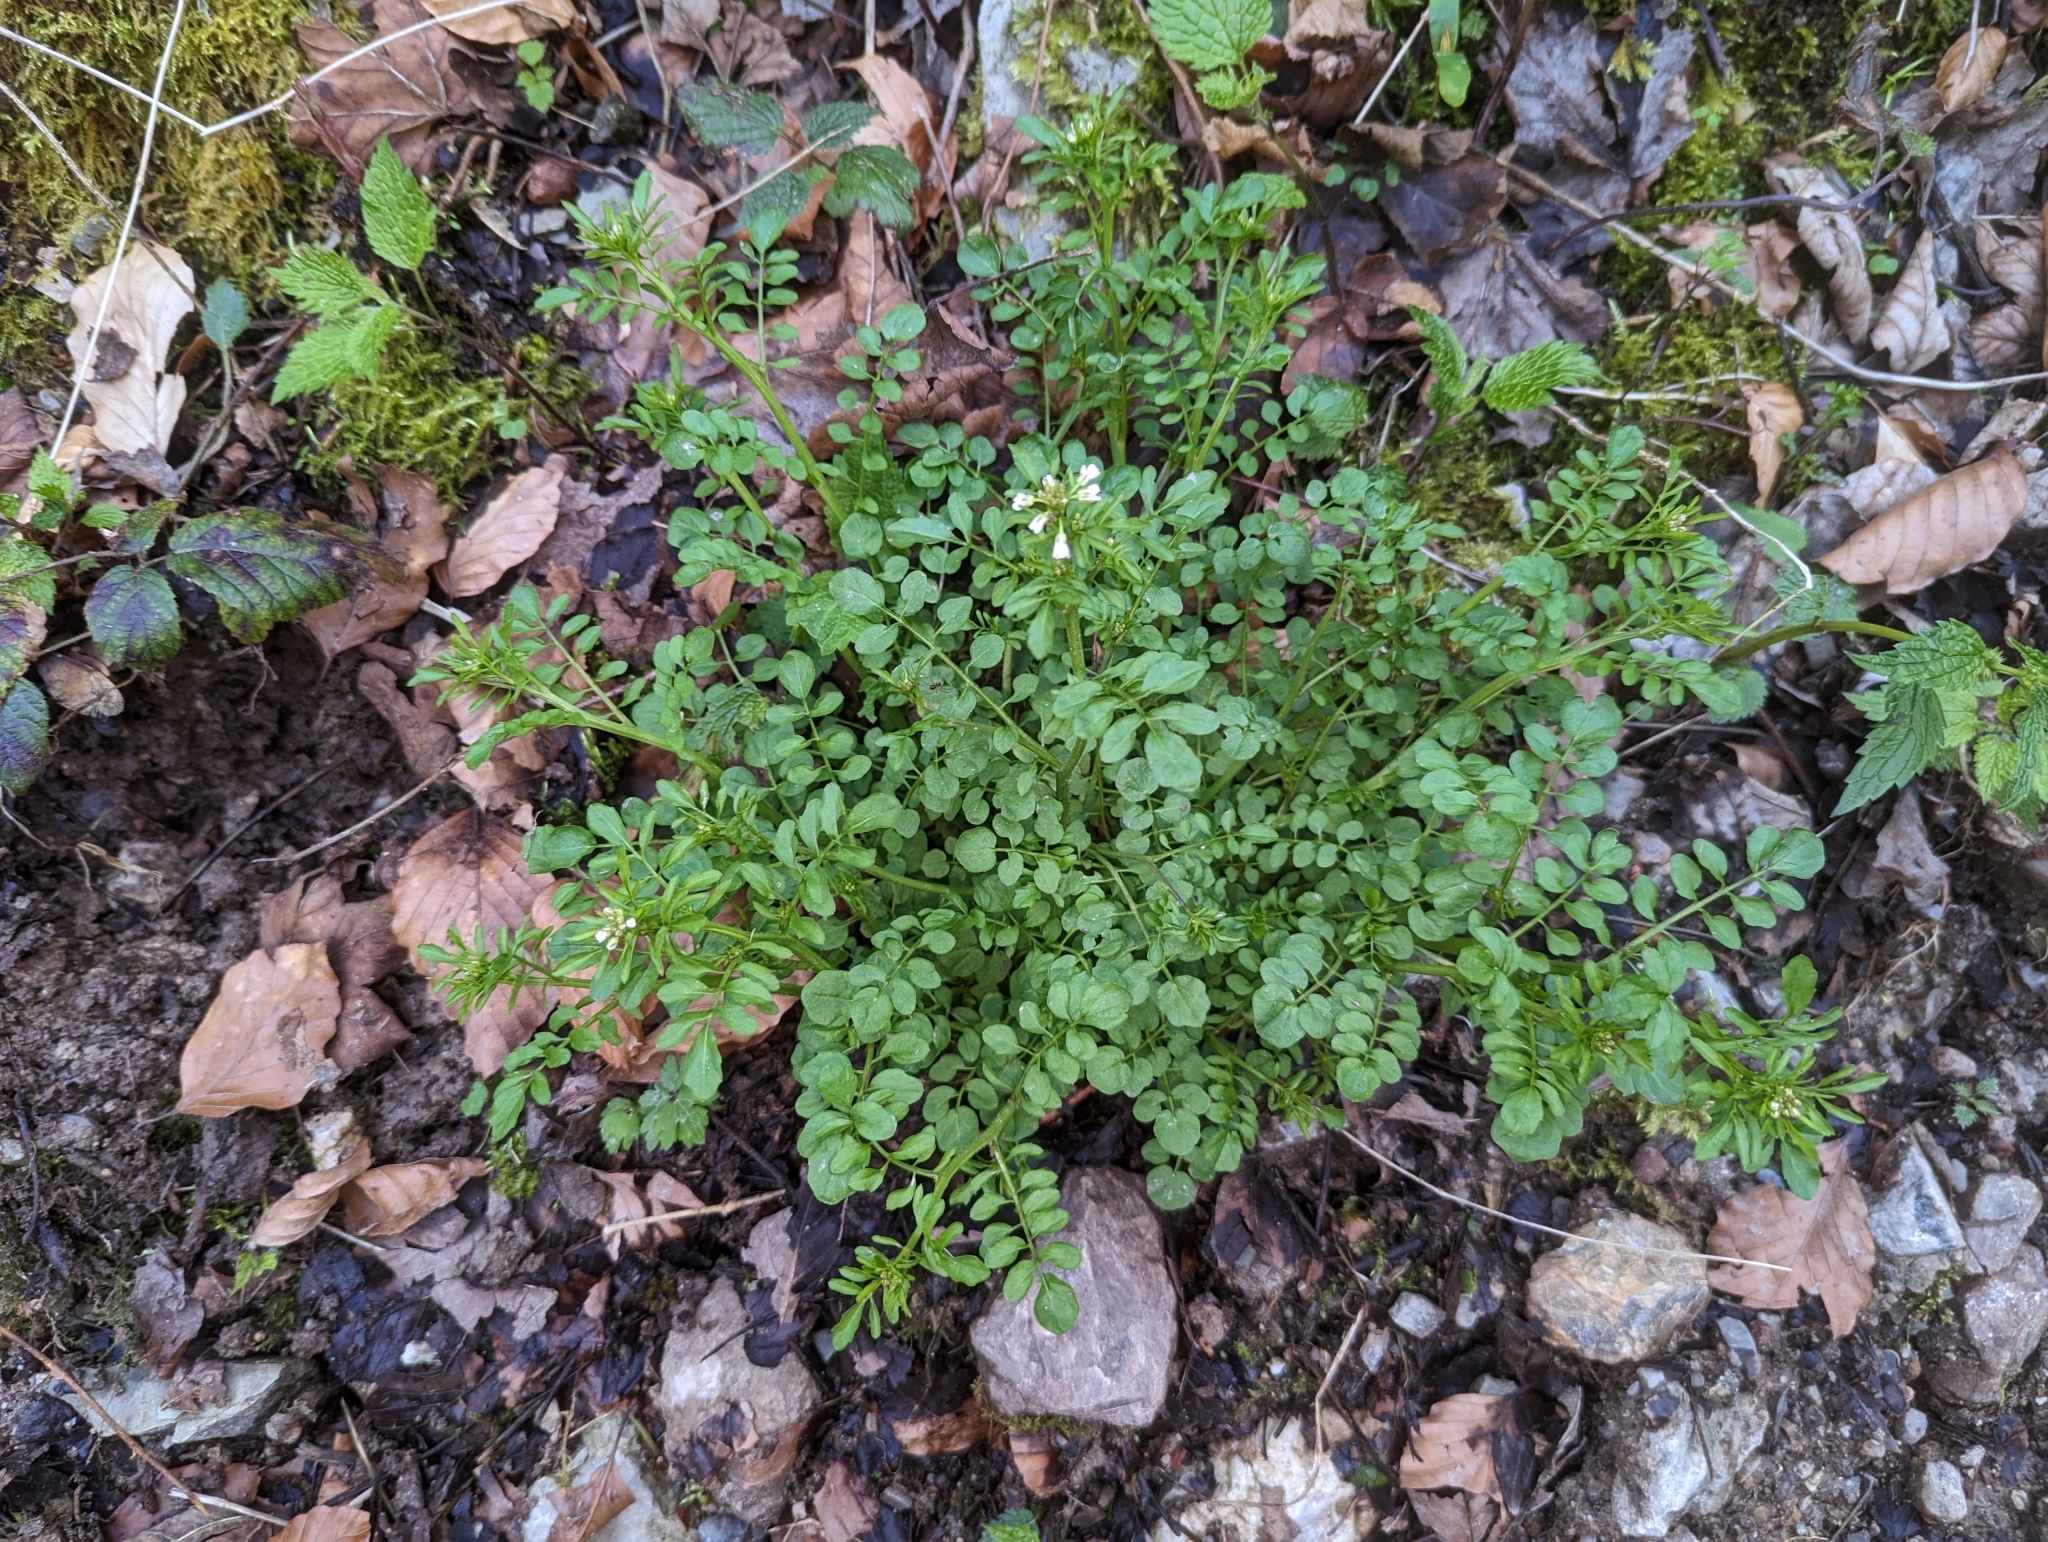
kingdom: Plantae
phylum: Tracheophyta
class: Magnoliopsida
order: Brassicales
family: Brassicaceae
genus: Cardamine
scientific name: Cardamine flexuosa
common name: Woodland bittercress
